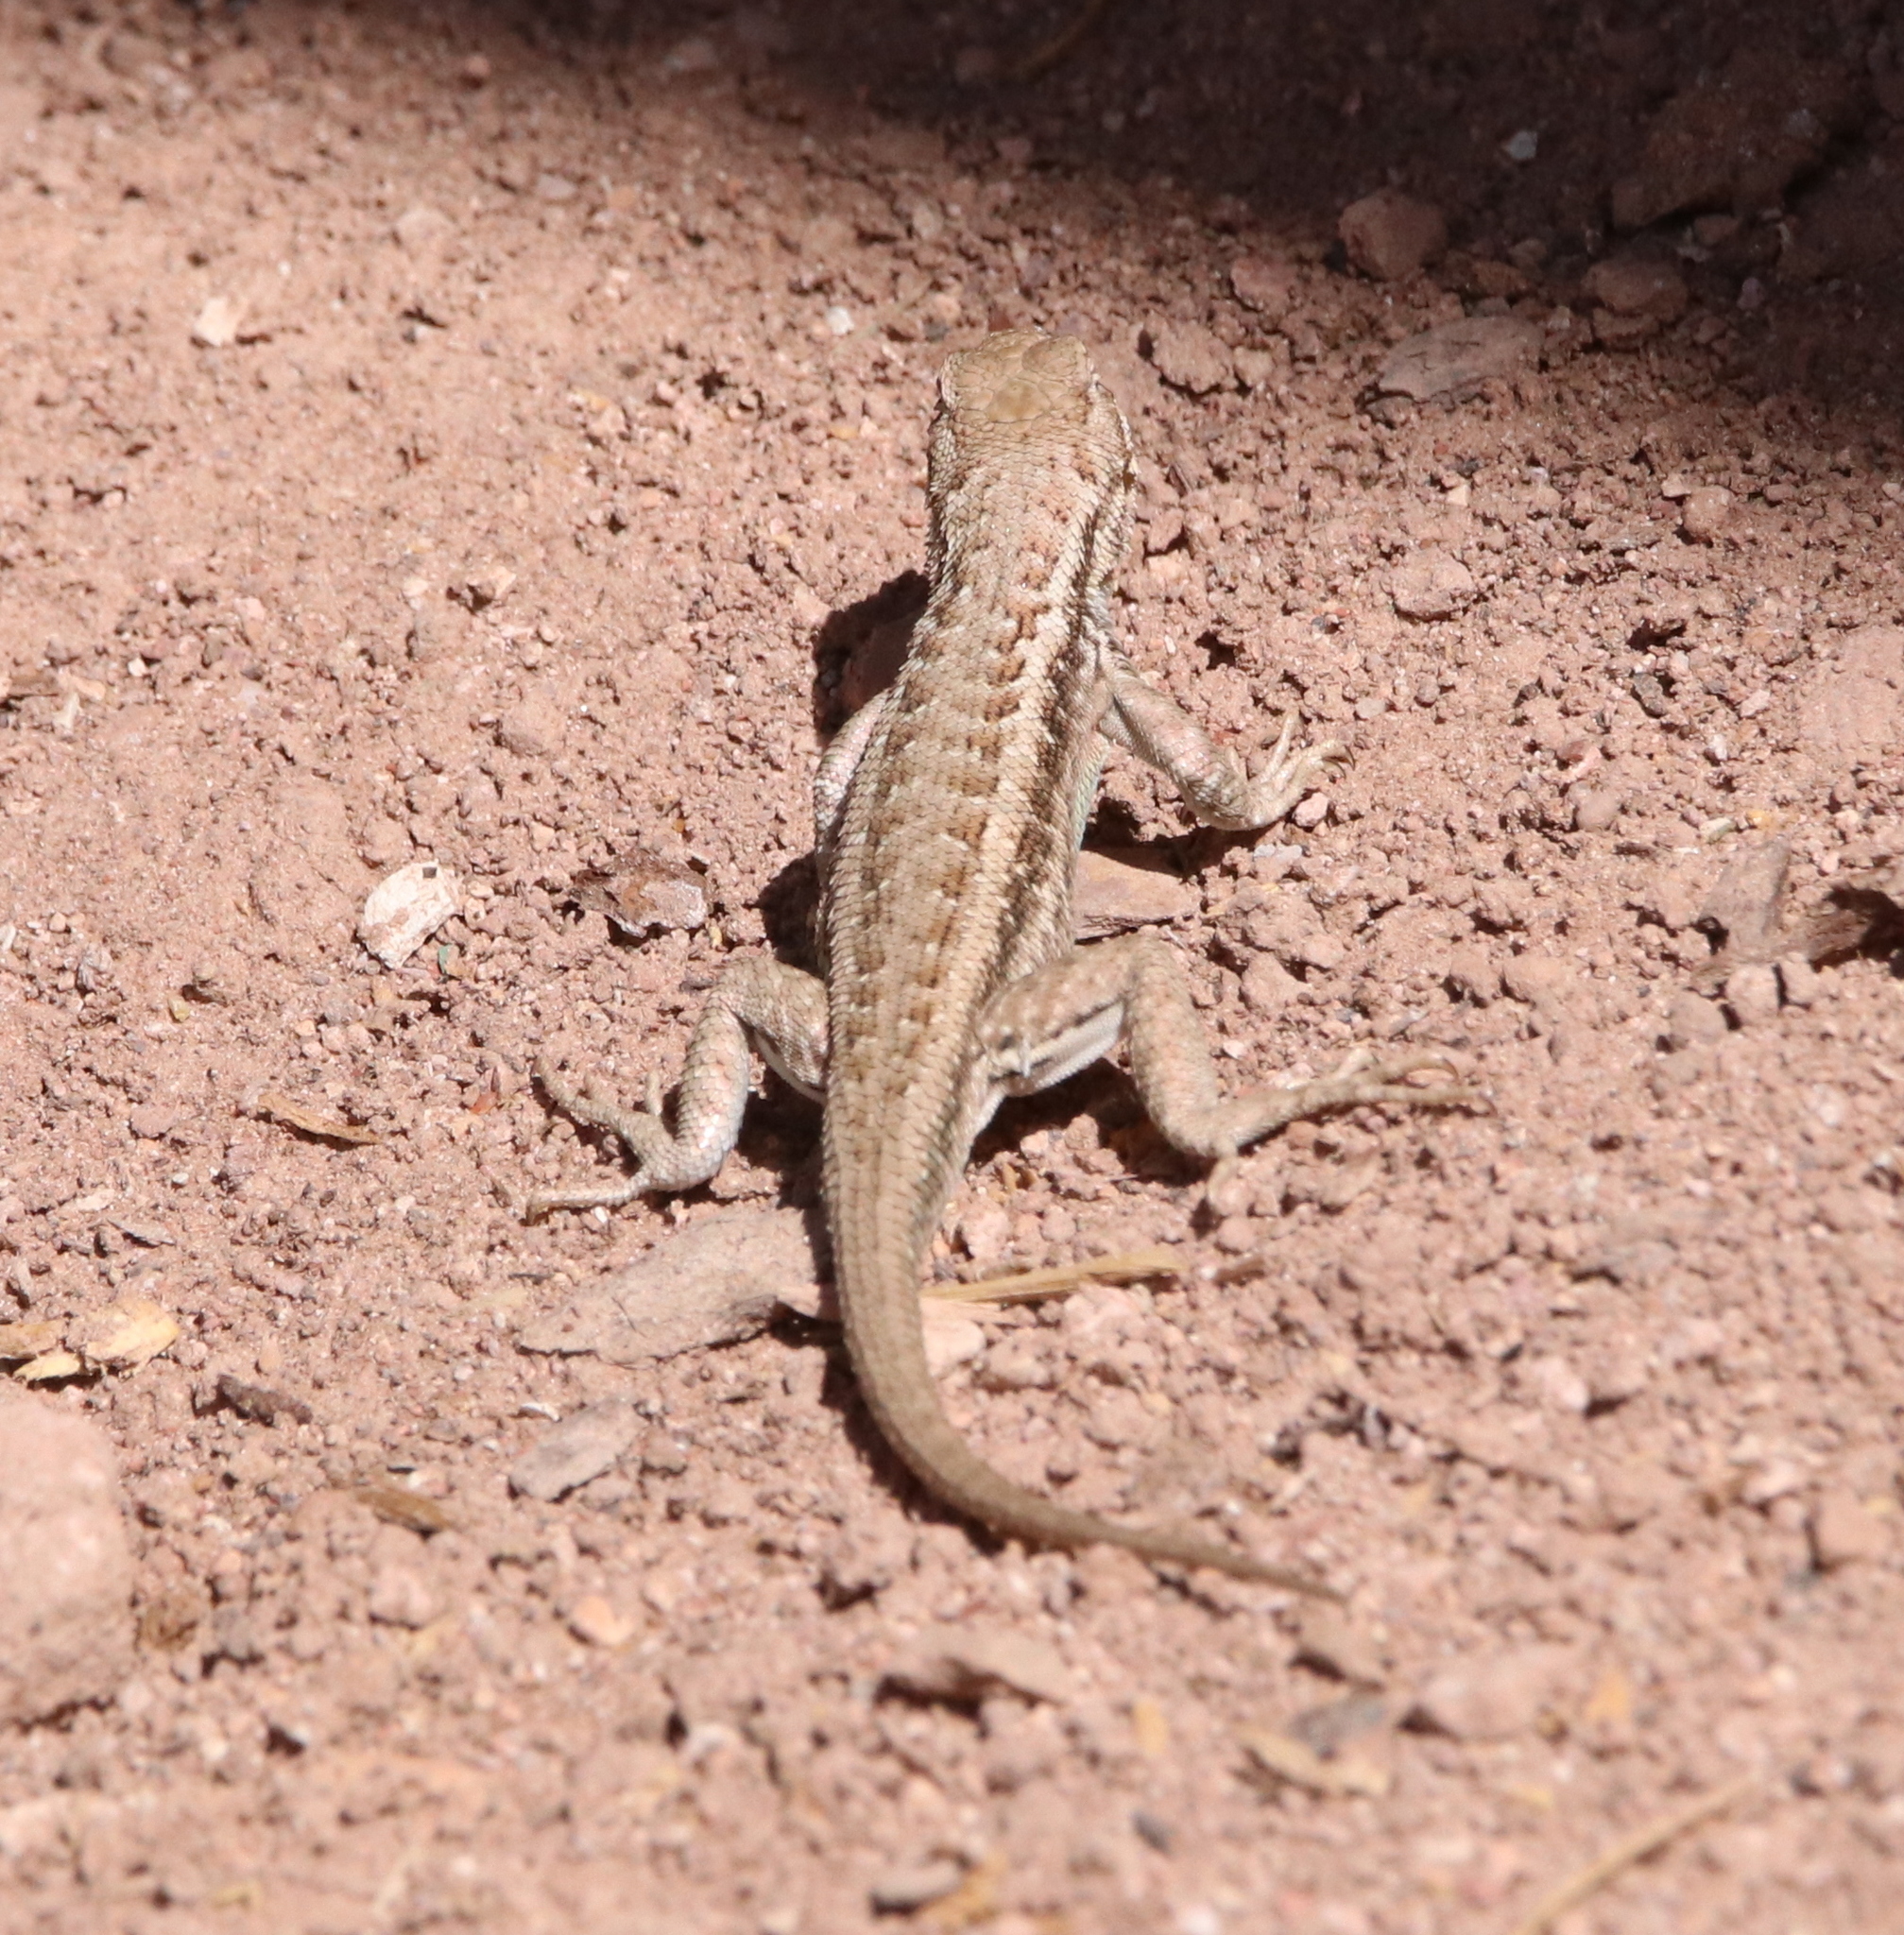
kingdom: Animalia
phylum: Chordata
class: Squamata
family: Phrynosomatidae
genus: Sceloporus
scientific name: Sceloporus graciosus
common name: Sagebrush lizard
